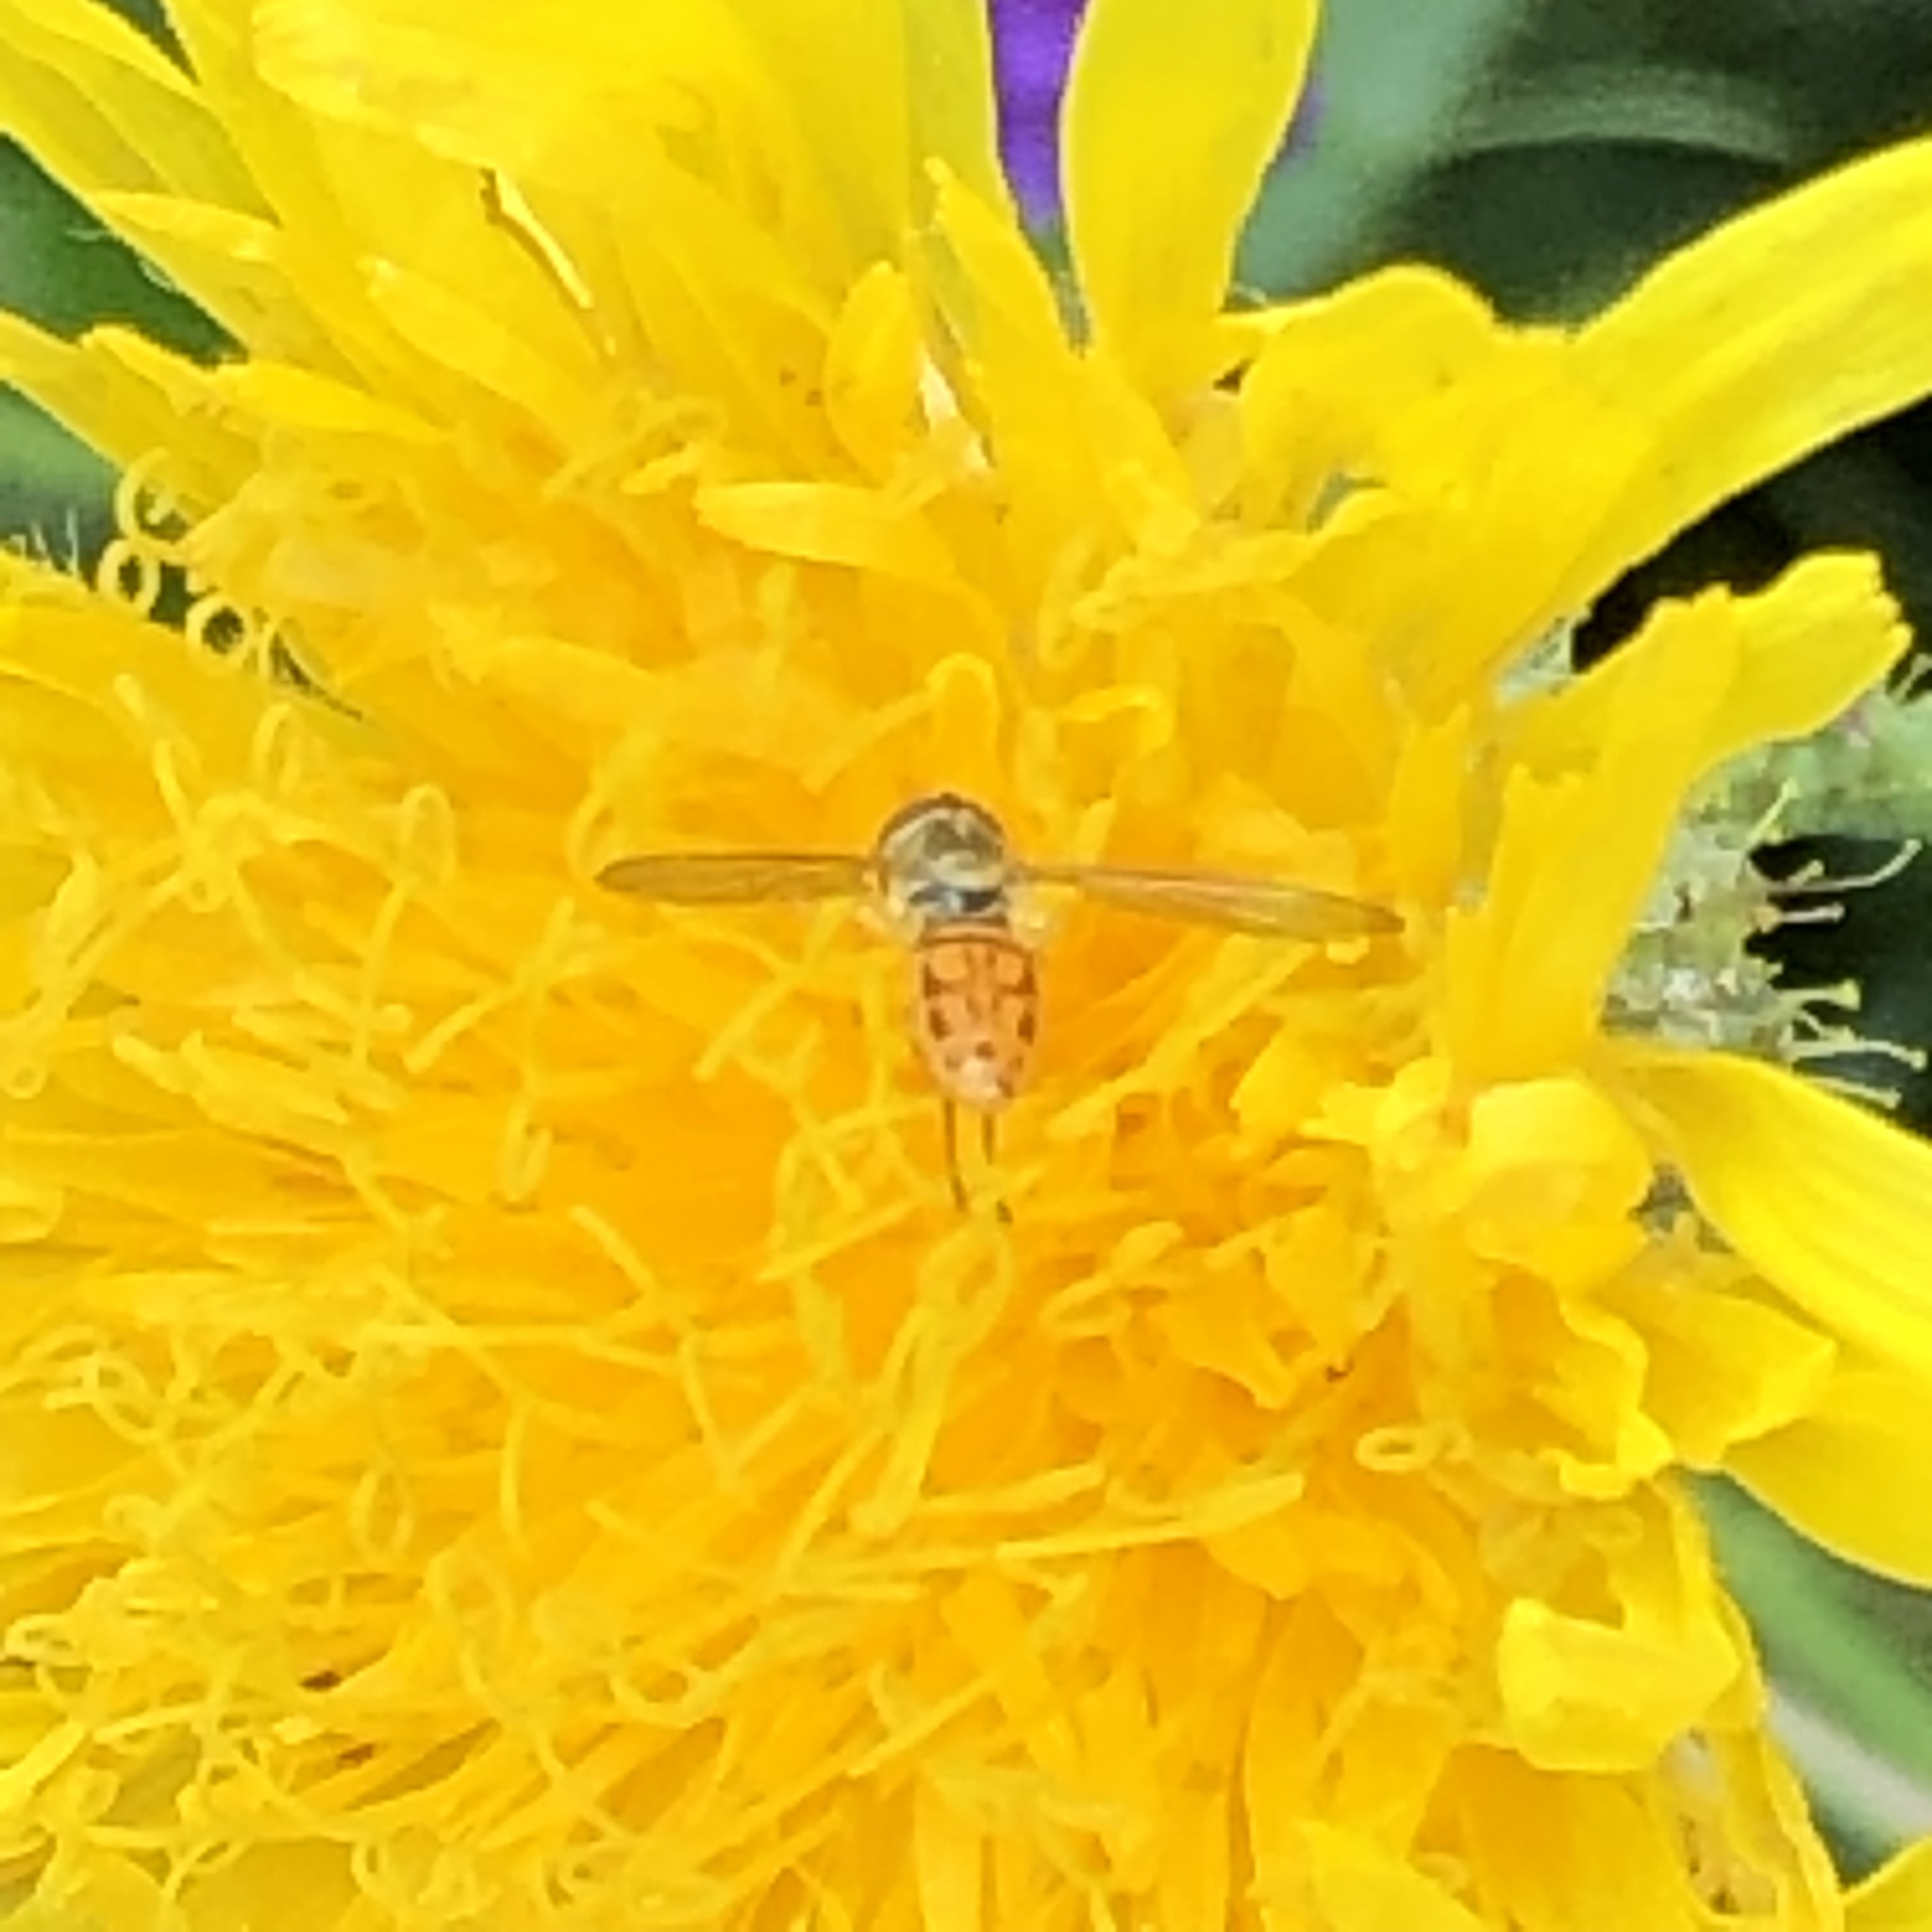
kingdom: Animalia
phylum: Arthropoda
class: Insecta
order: Diptera
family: Syrphidae
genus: Toxomerus
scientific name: Toxomerus marginatus
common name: Syrphid fly
